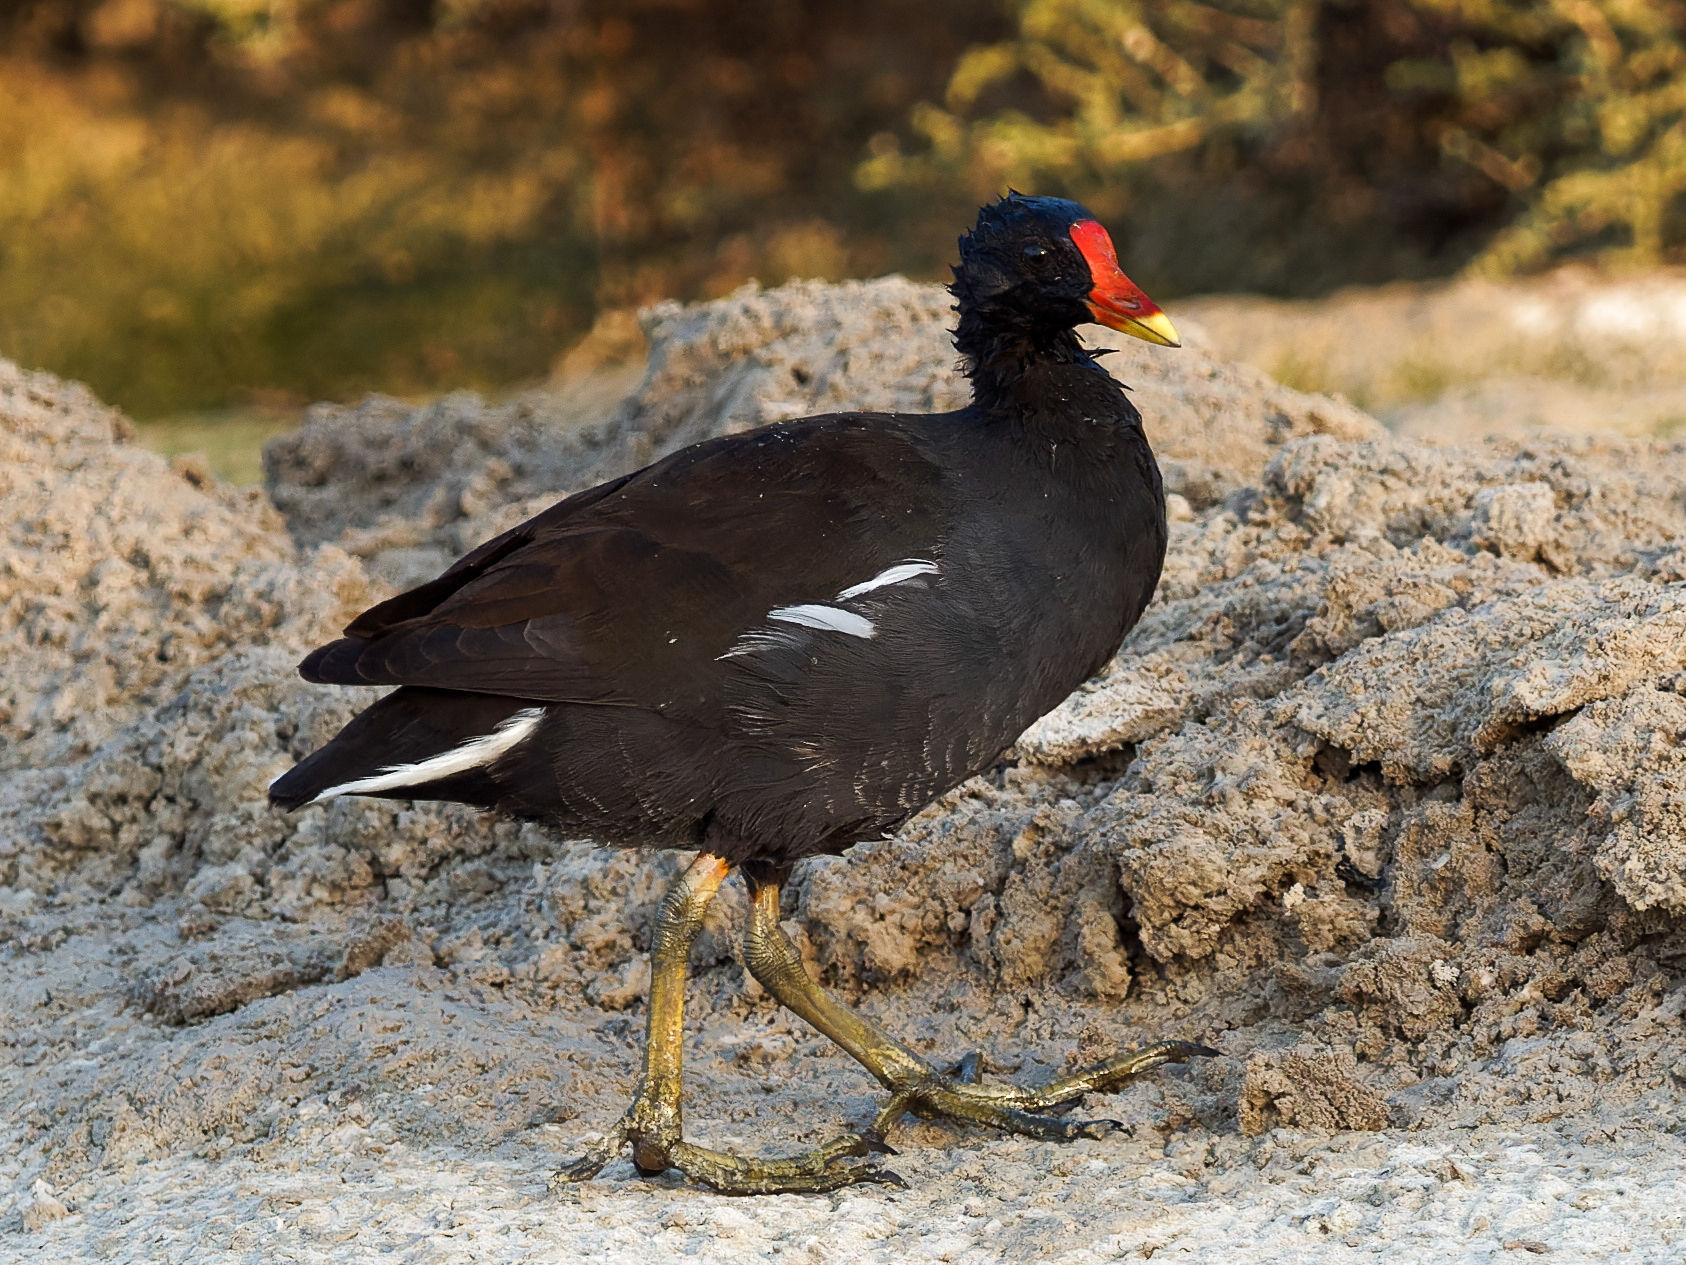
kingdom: Animalia
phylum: Chordata
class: Aves
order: Gruiformes
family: Rallidae
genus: Gallinula
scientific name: Gallinula chloropus
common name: Common moorhen
